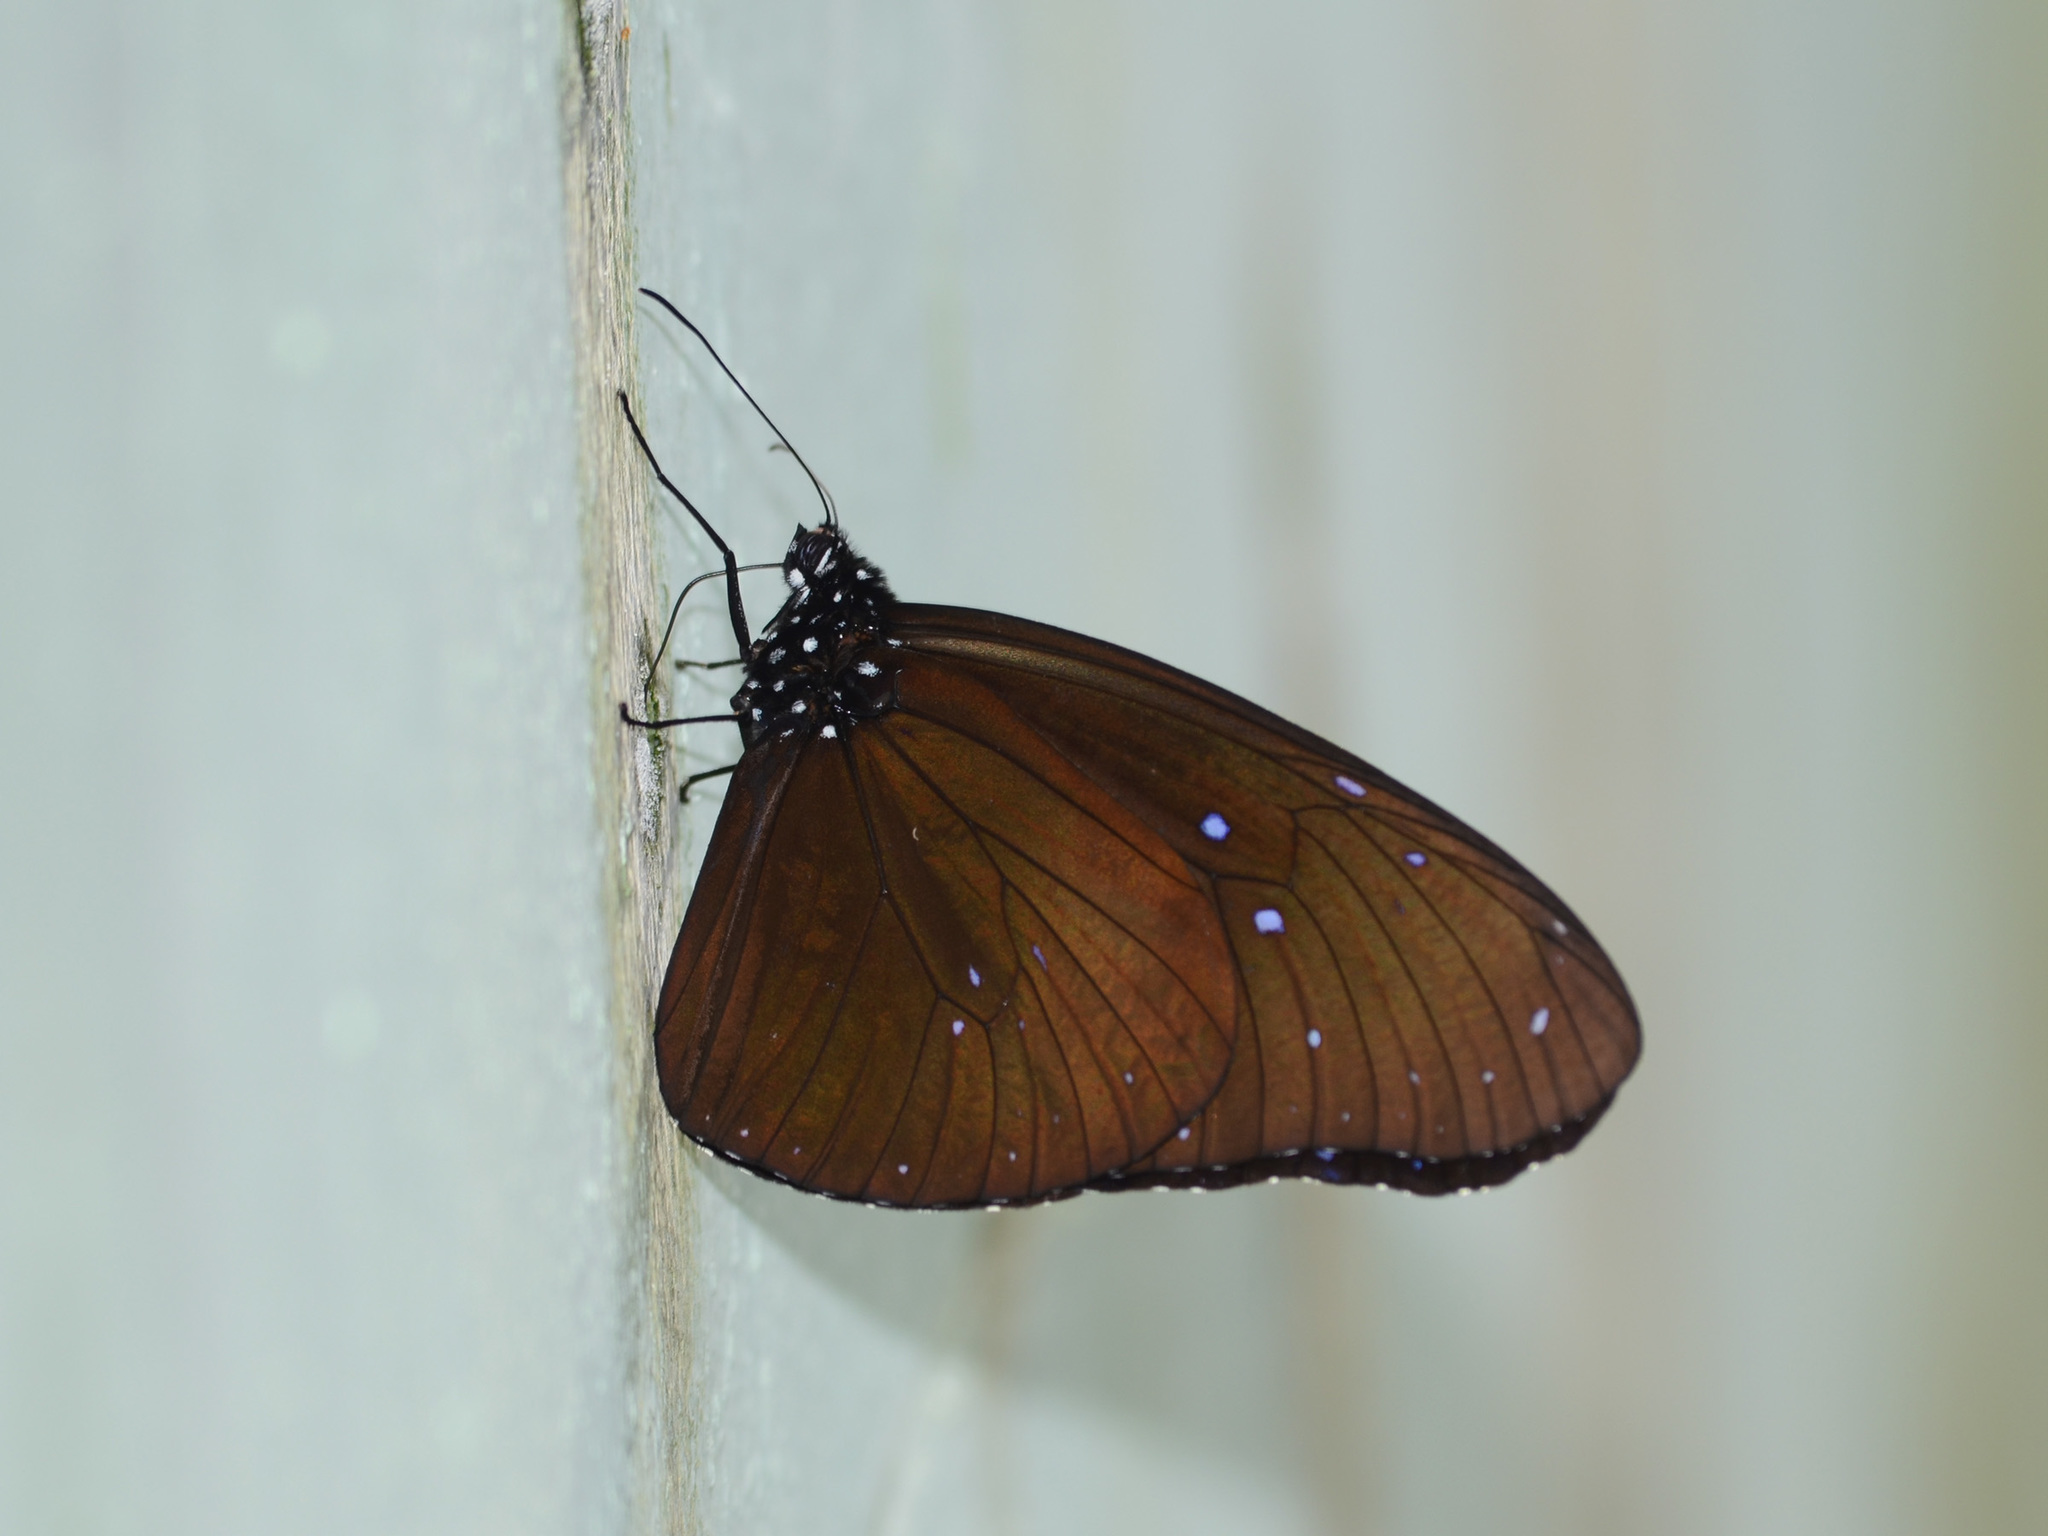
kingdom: Animalia
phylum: Arthropoda
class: Insecta
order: Lepidoptera
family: Nymphalidae
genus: Euploea
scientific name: Euploea mulciber
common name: Striped blue crow butterfly
